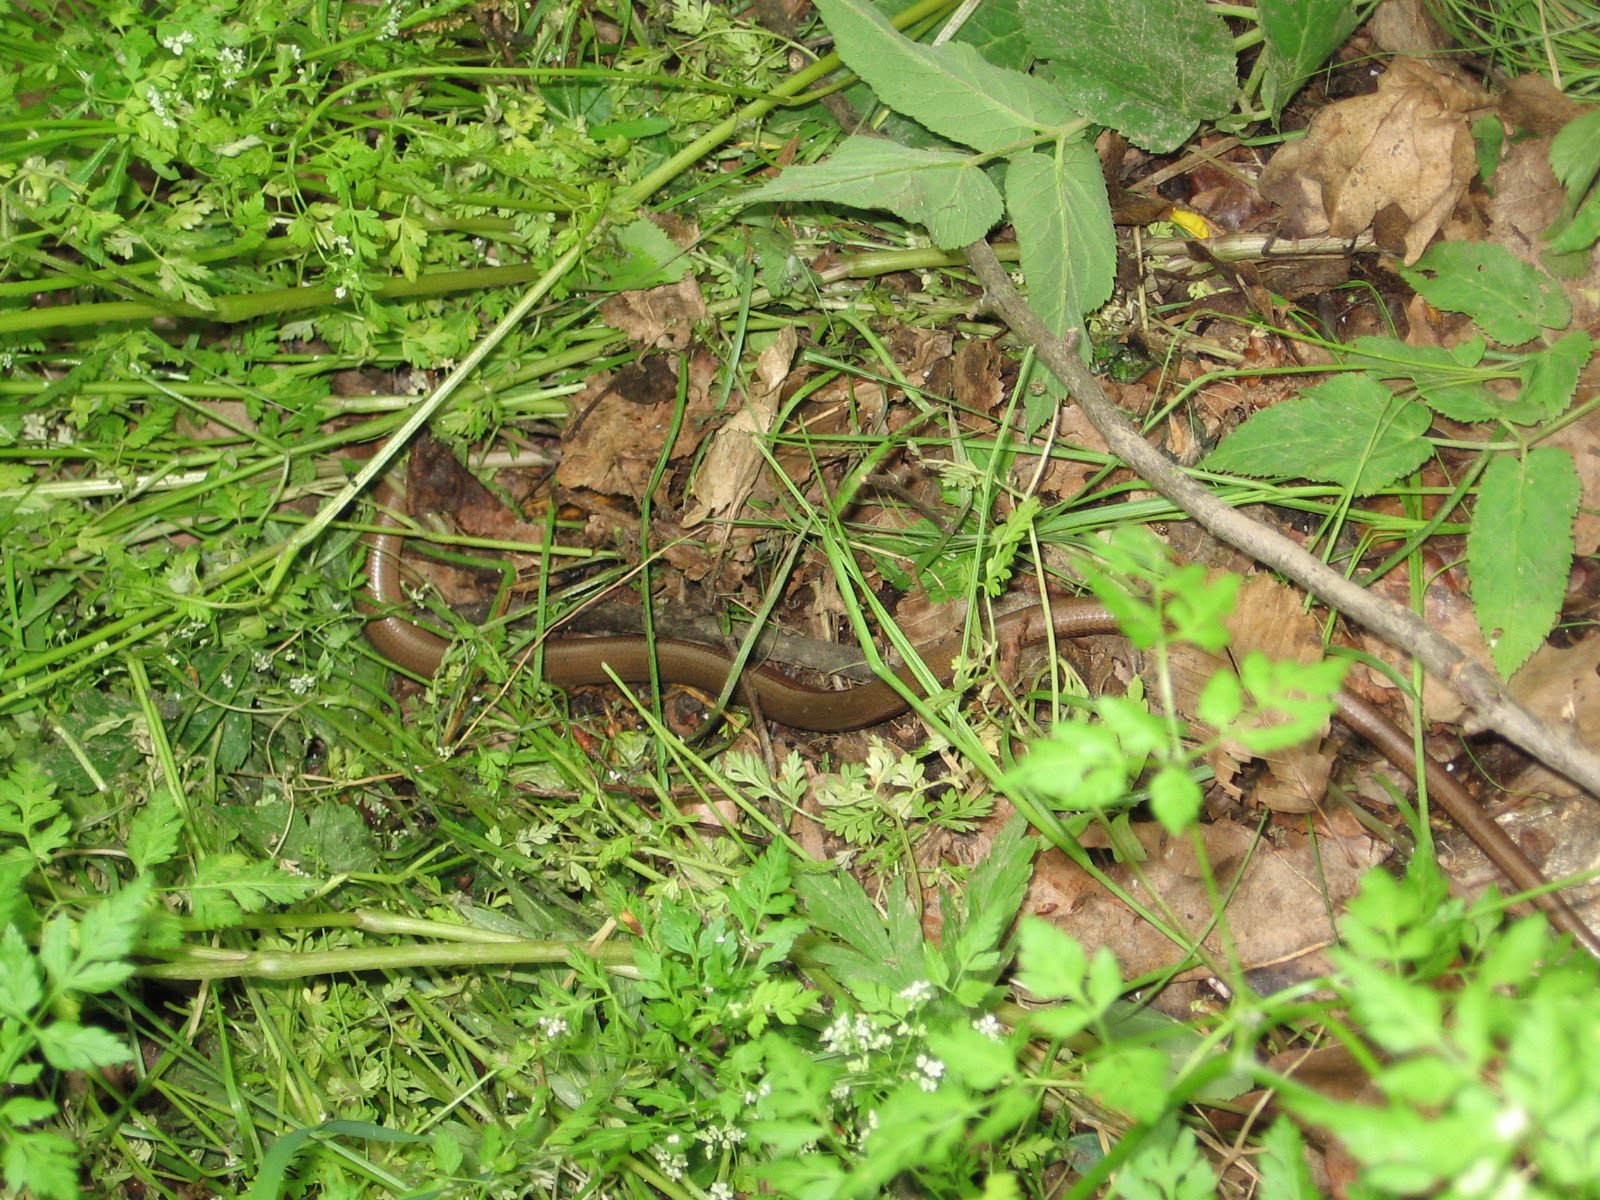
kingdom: Animalia
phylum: Chordata
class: Squamata
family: Anguidae
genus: Anguis
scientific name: Anguis fragilis
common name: Slow worm
